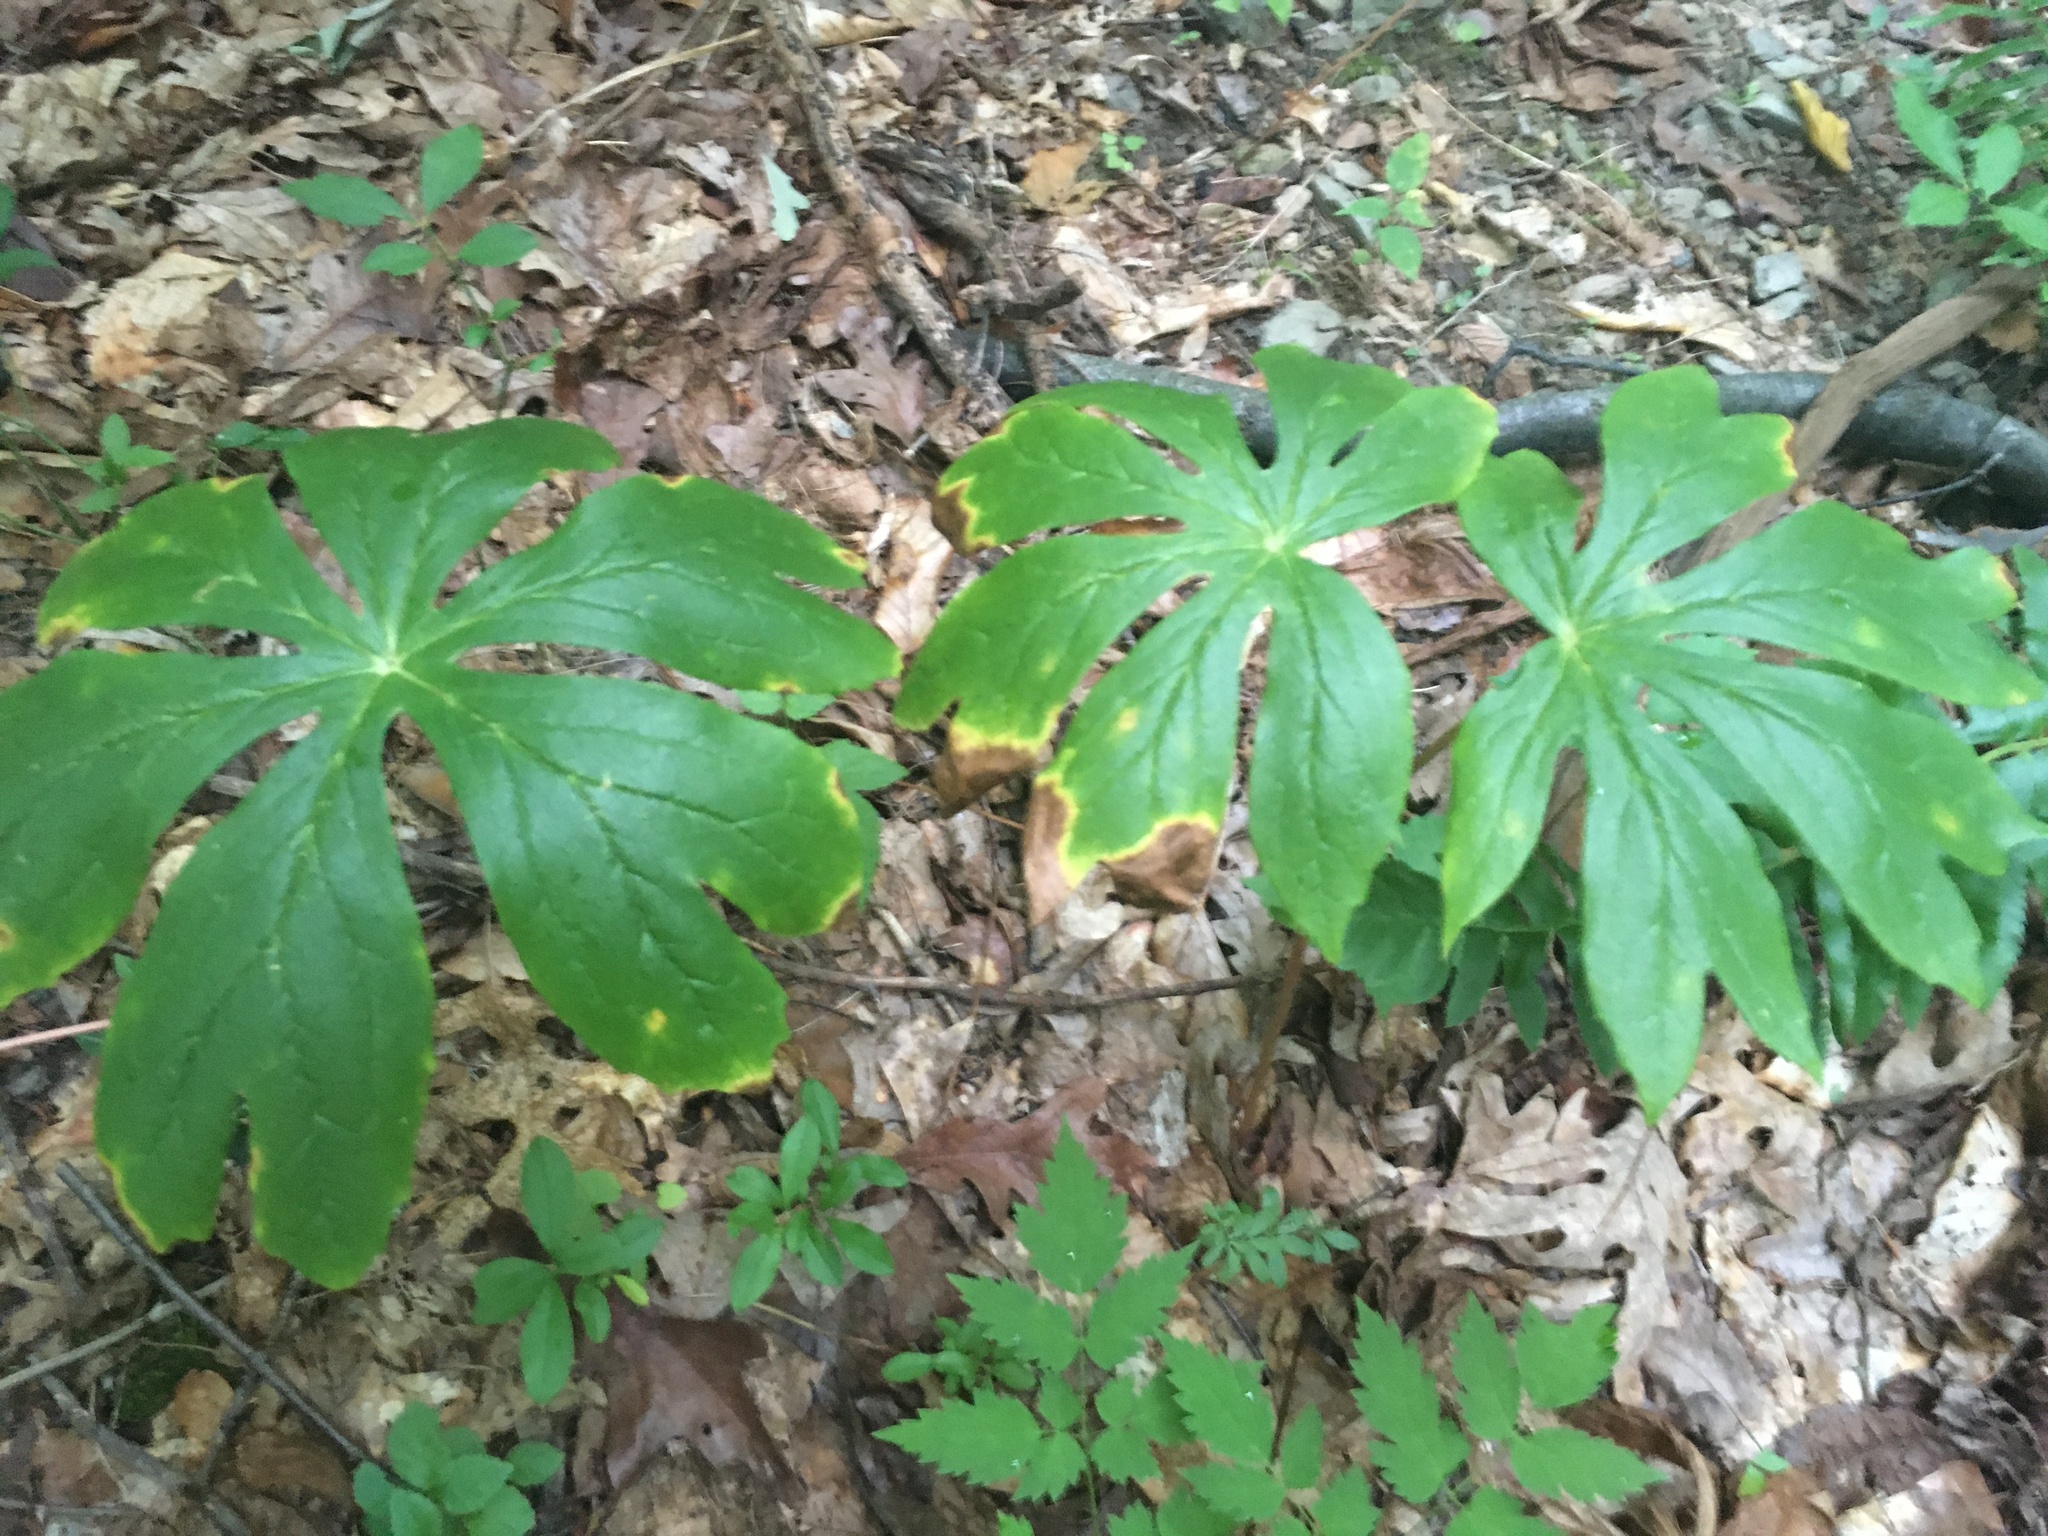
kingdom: Plantae
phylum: Tracheophyta
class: Magnoliopsida
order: Ranunculales
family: Berberidaceae
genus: Podophyllum
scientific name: Podophyllum peltatum
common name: Wild mandrake
